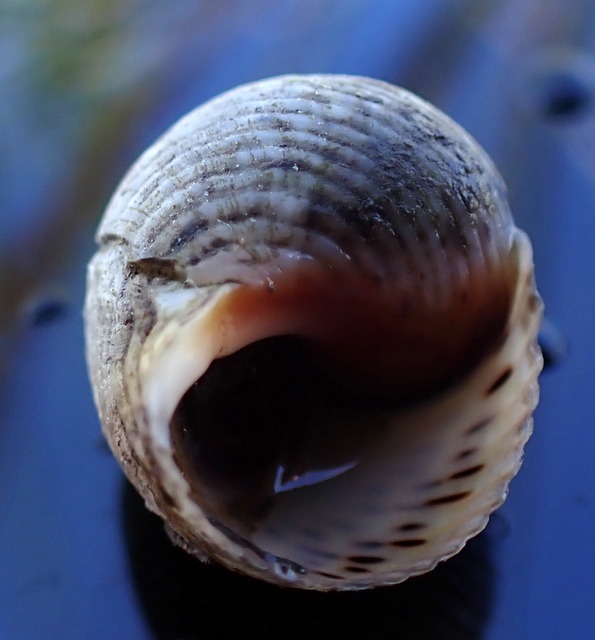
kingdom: Animalia
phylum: Mollusca
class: Gastropoda
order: Littorinimorpha
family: Littorinidae
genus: Littoraria
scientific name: Littoraria irrorata
